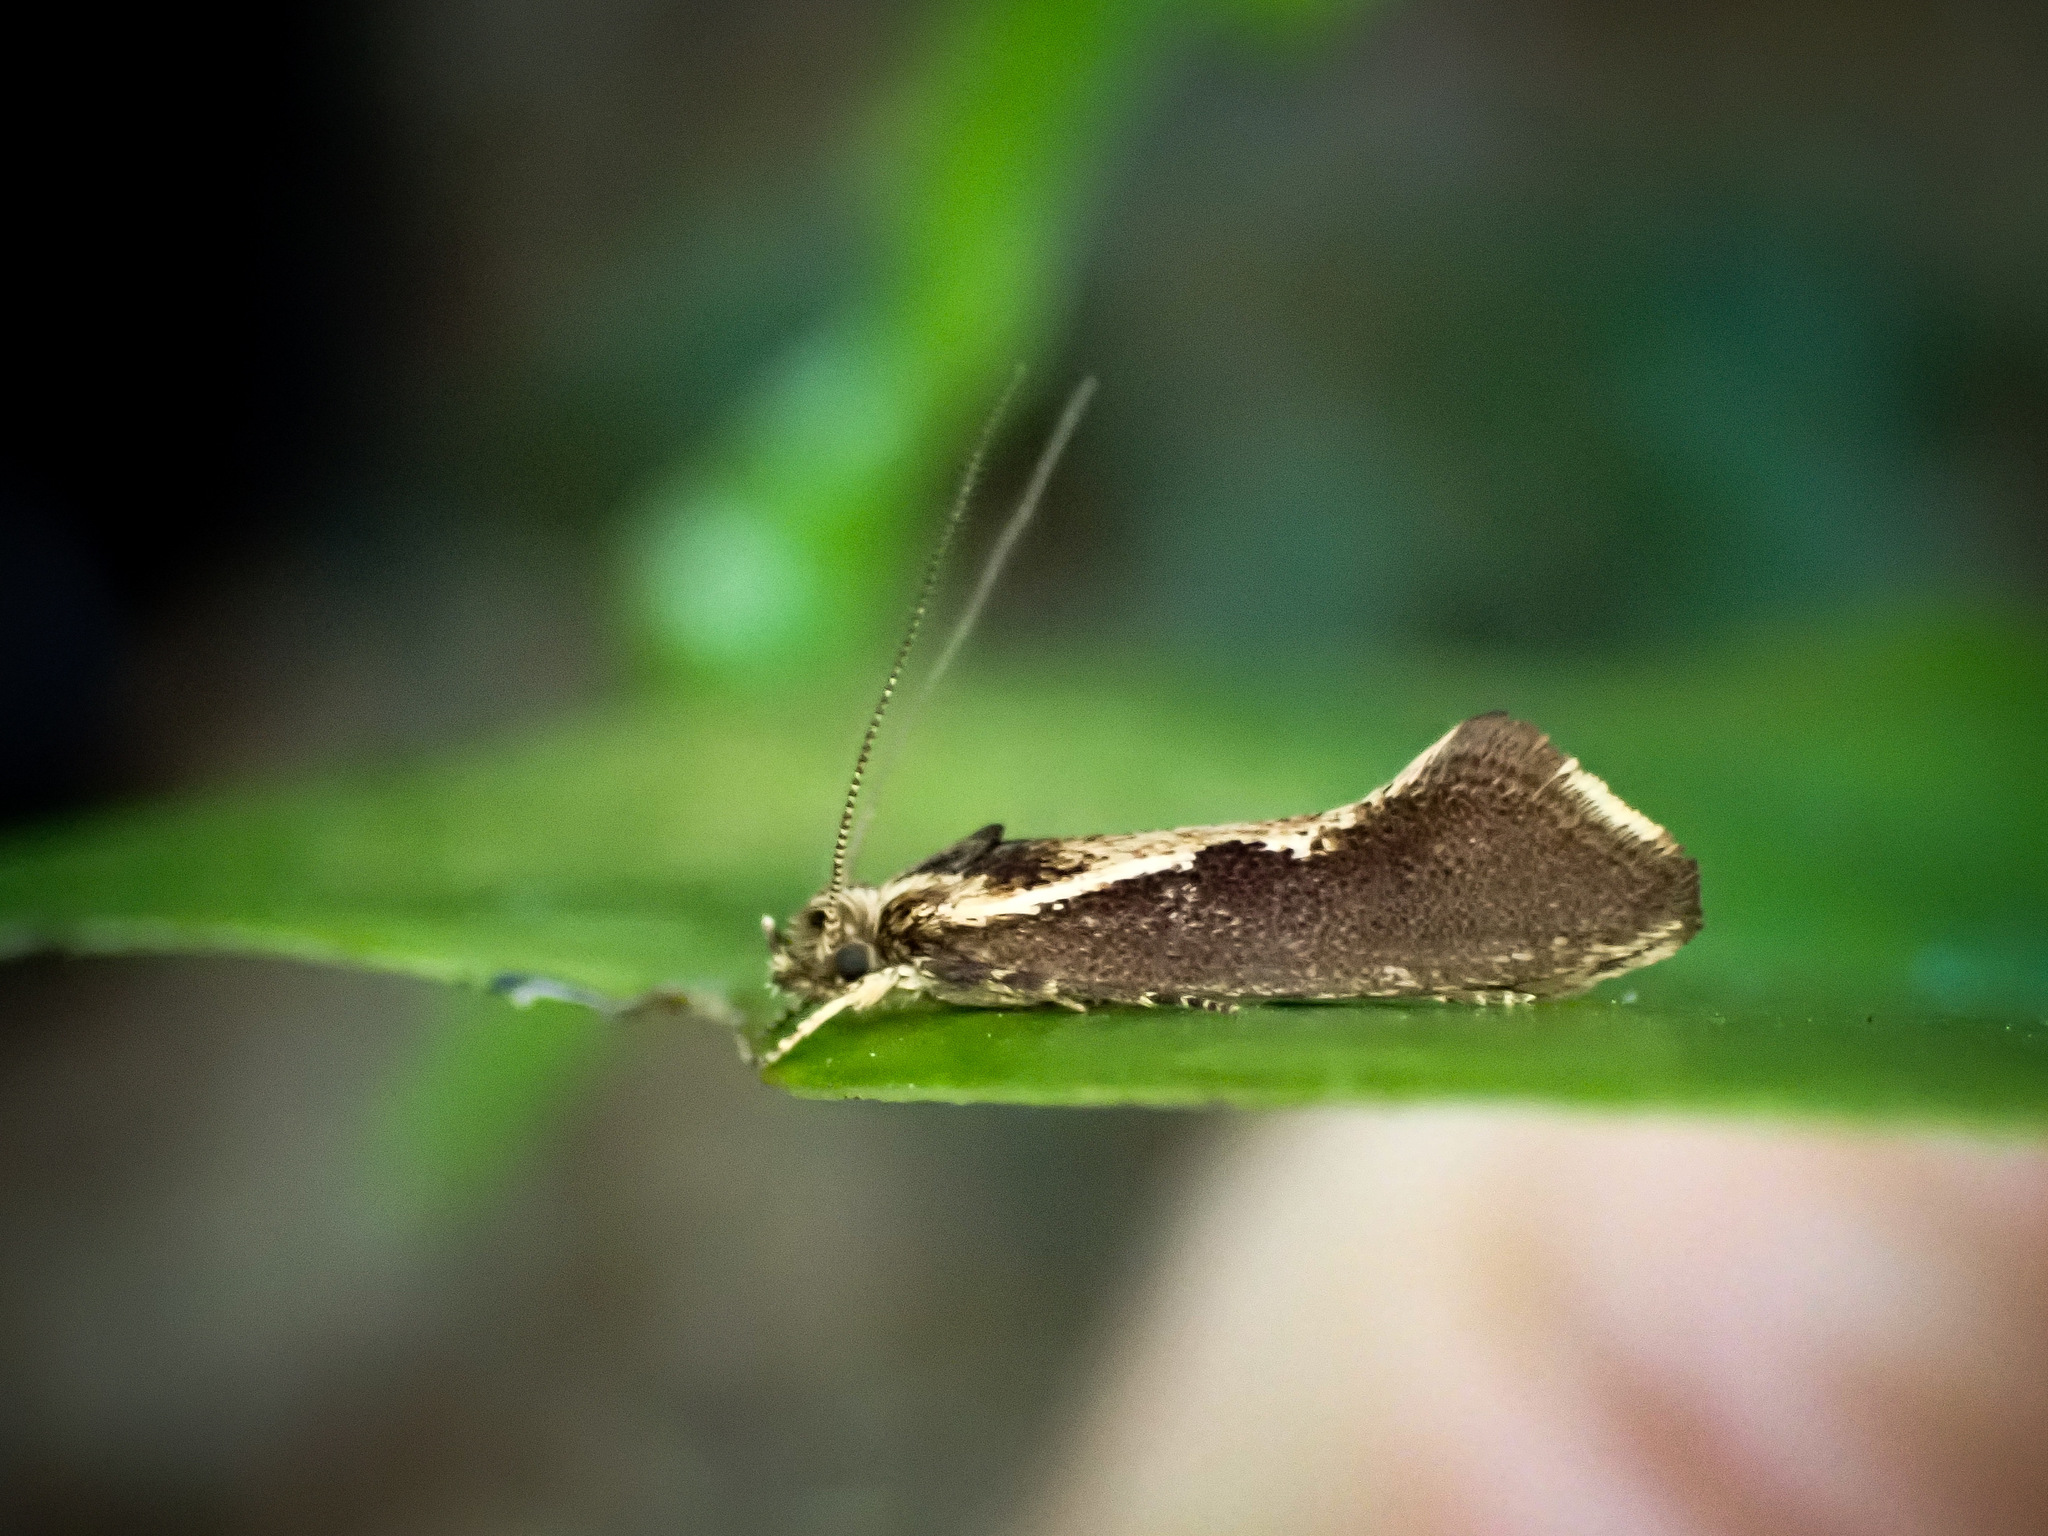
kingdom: Animalia
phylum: Arthropoda
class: Insecta
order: Lepidoptera
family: Tineidae
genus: Tinea
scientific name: Tinea belonota
